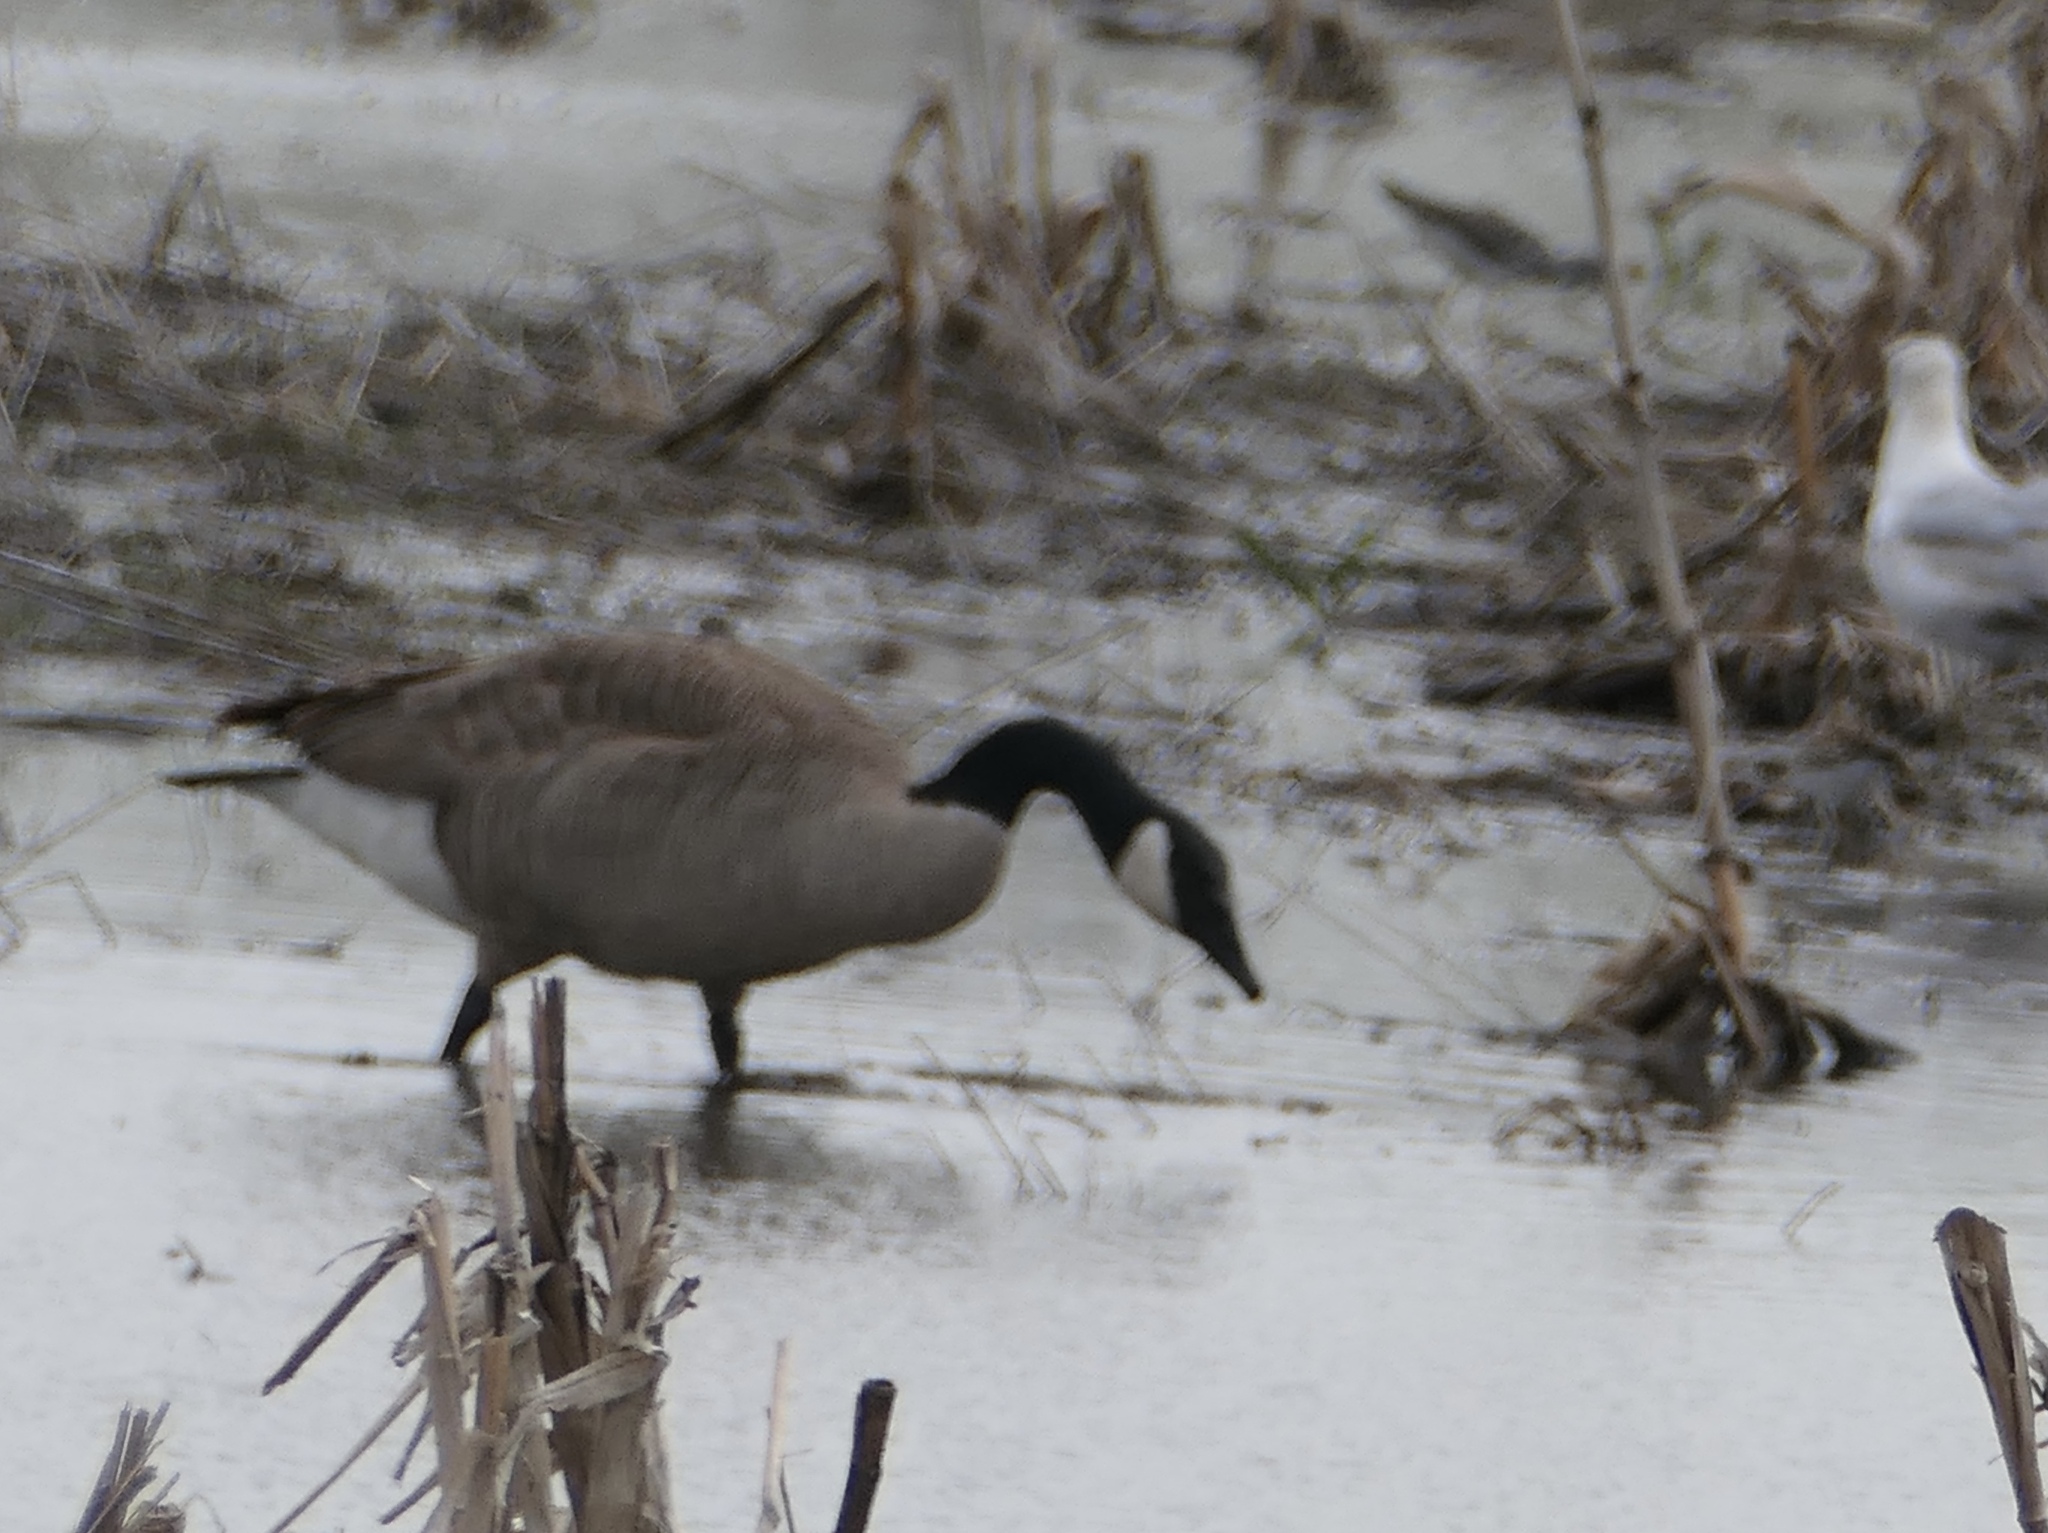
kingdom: Animalia
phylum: Chordata
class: Aves
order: Anseriformes
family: Anatidae
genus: Branta
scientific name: Branta canadensis
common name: Canada goose
